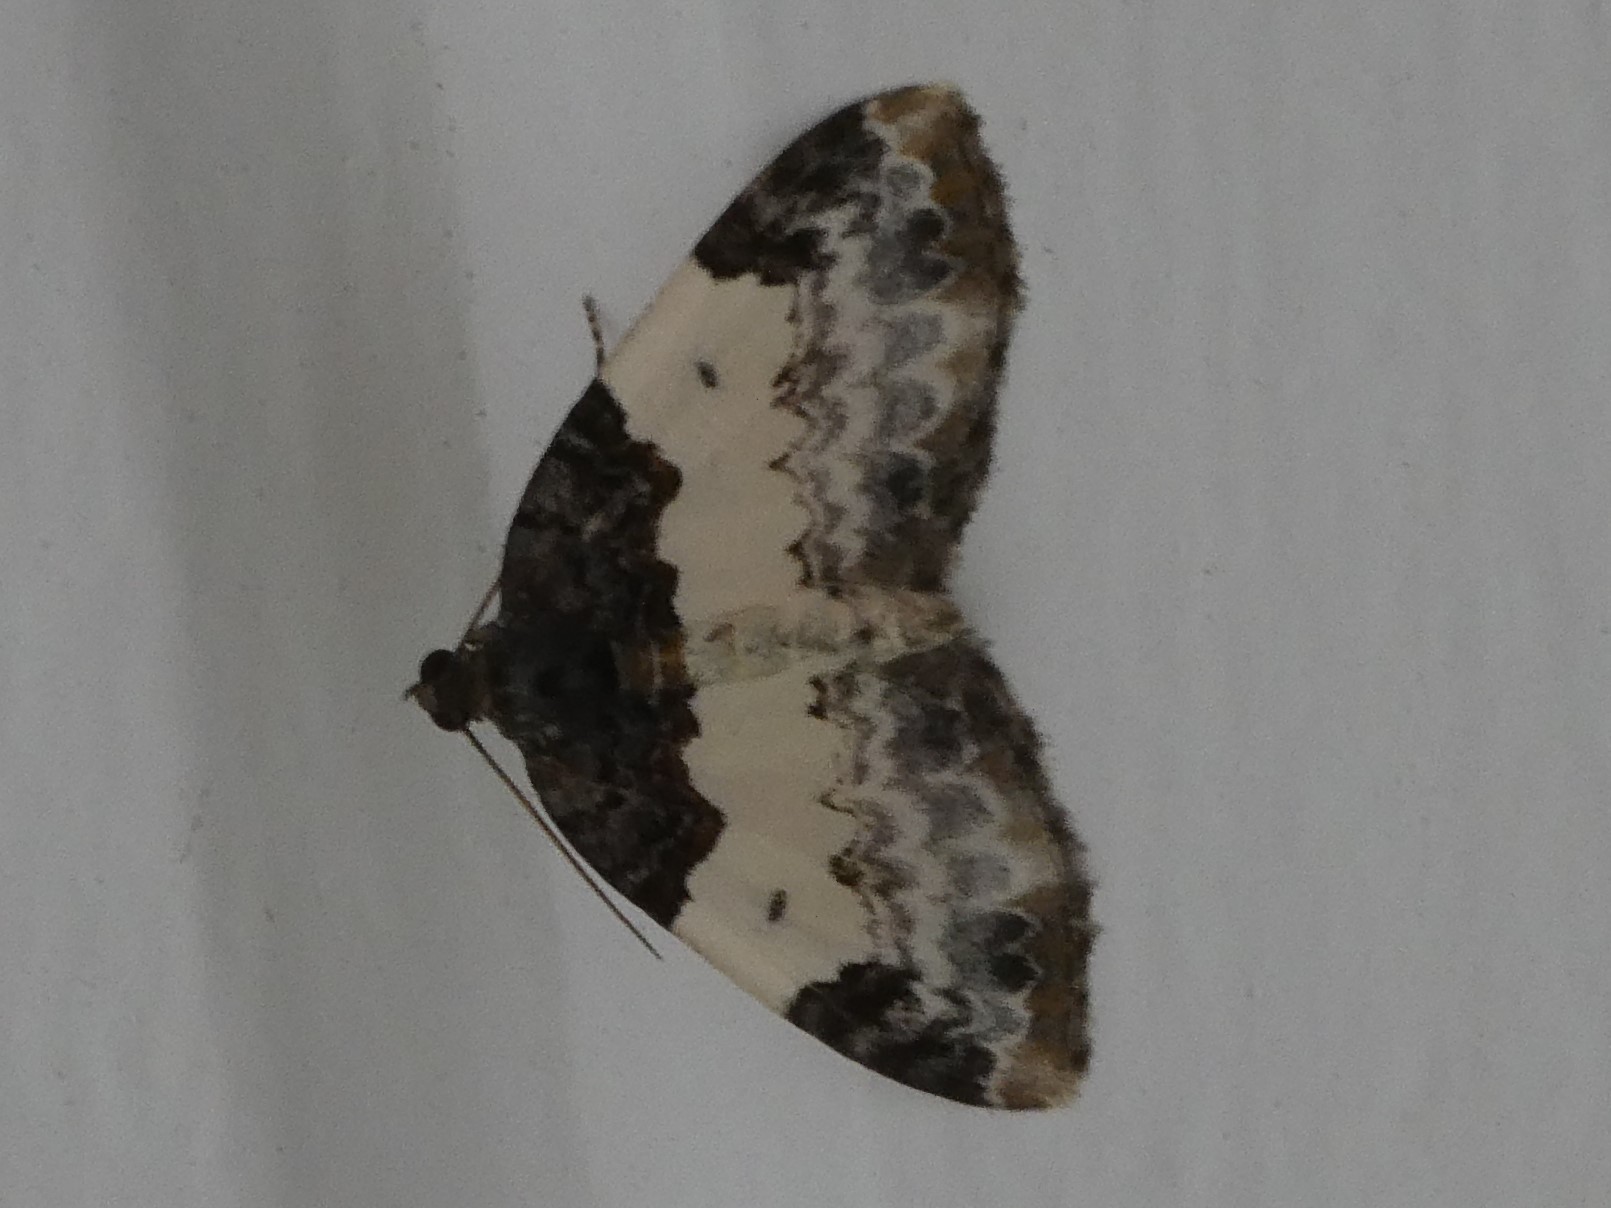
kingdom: Animalia
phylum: Arthropoda
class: Insecta
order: Lepidoptera
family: Geometridae
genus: Mesoleuca
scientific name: Mesoleuca ruficillata
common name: White-ribboned carpet moth
